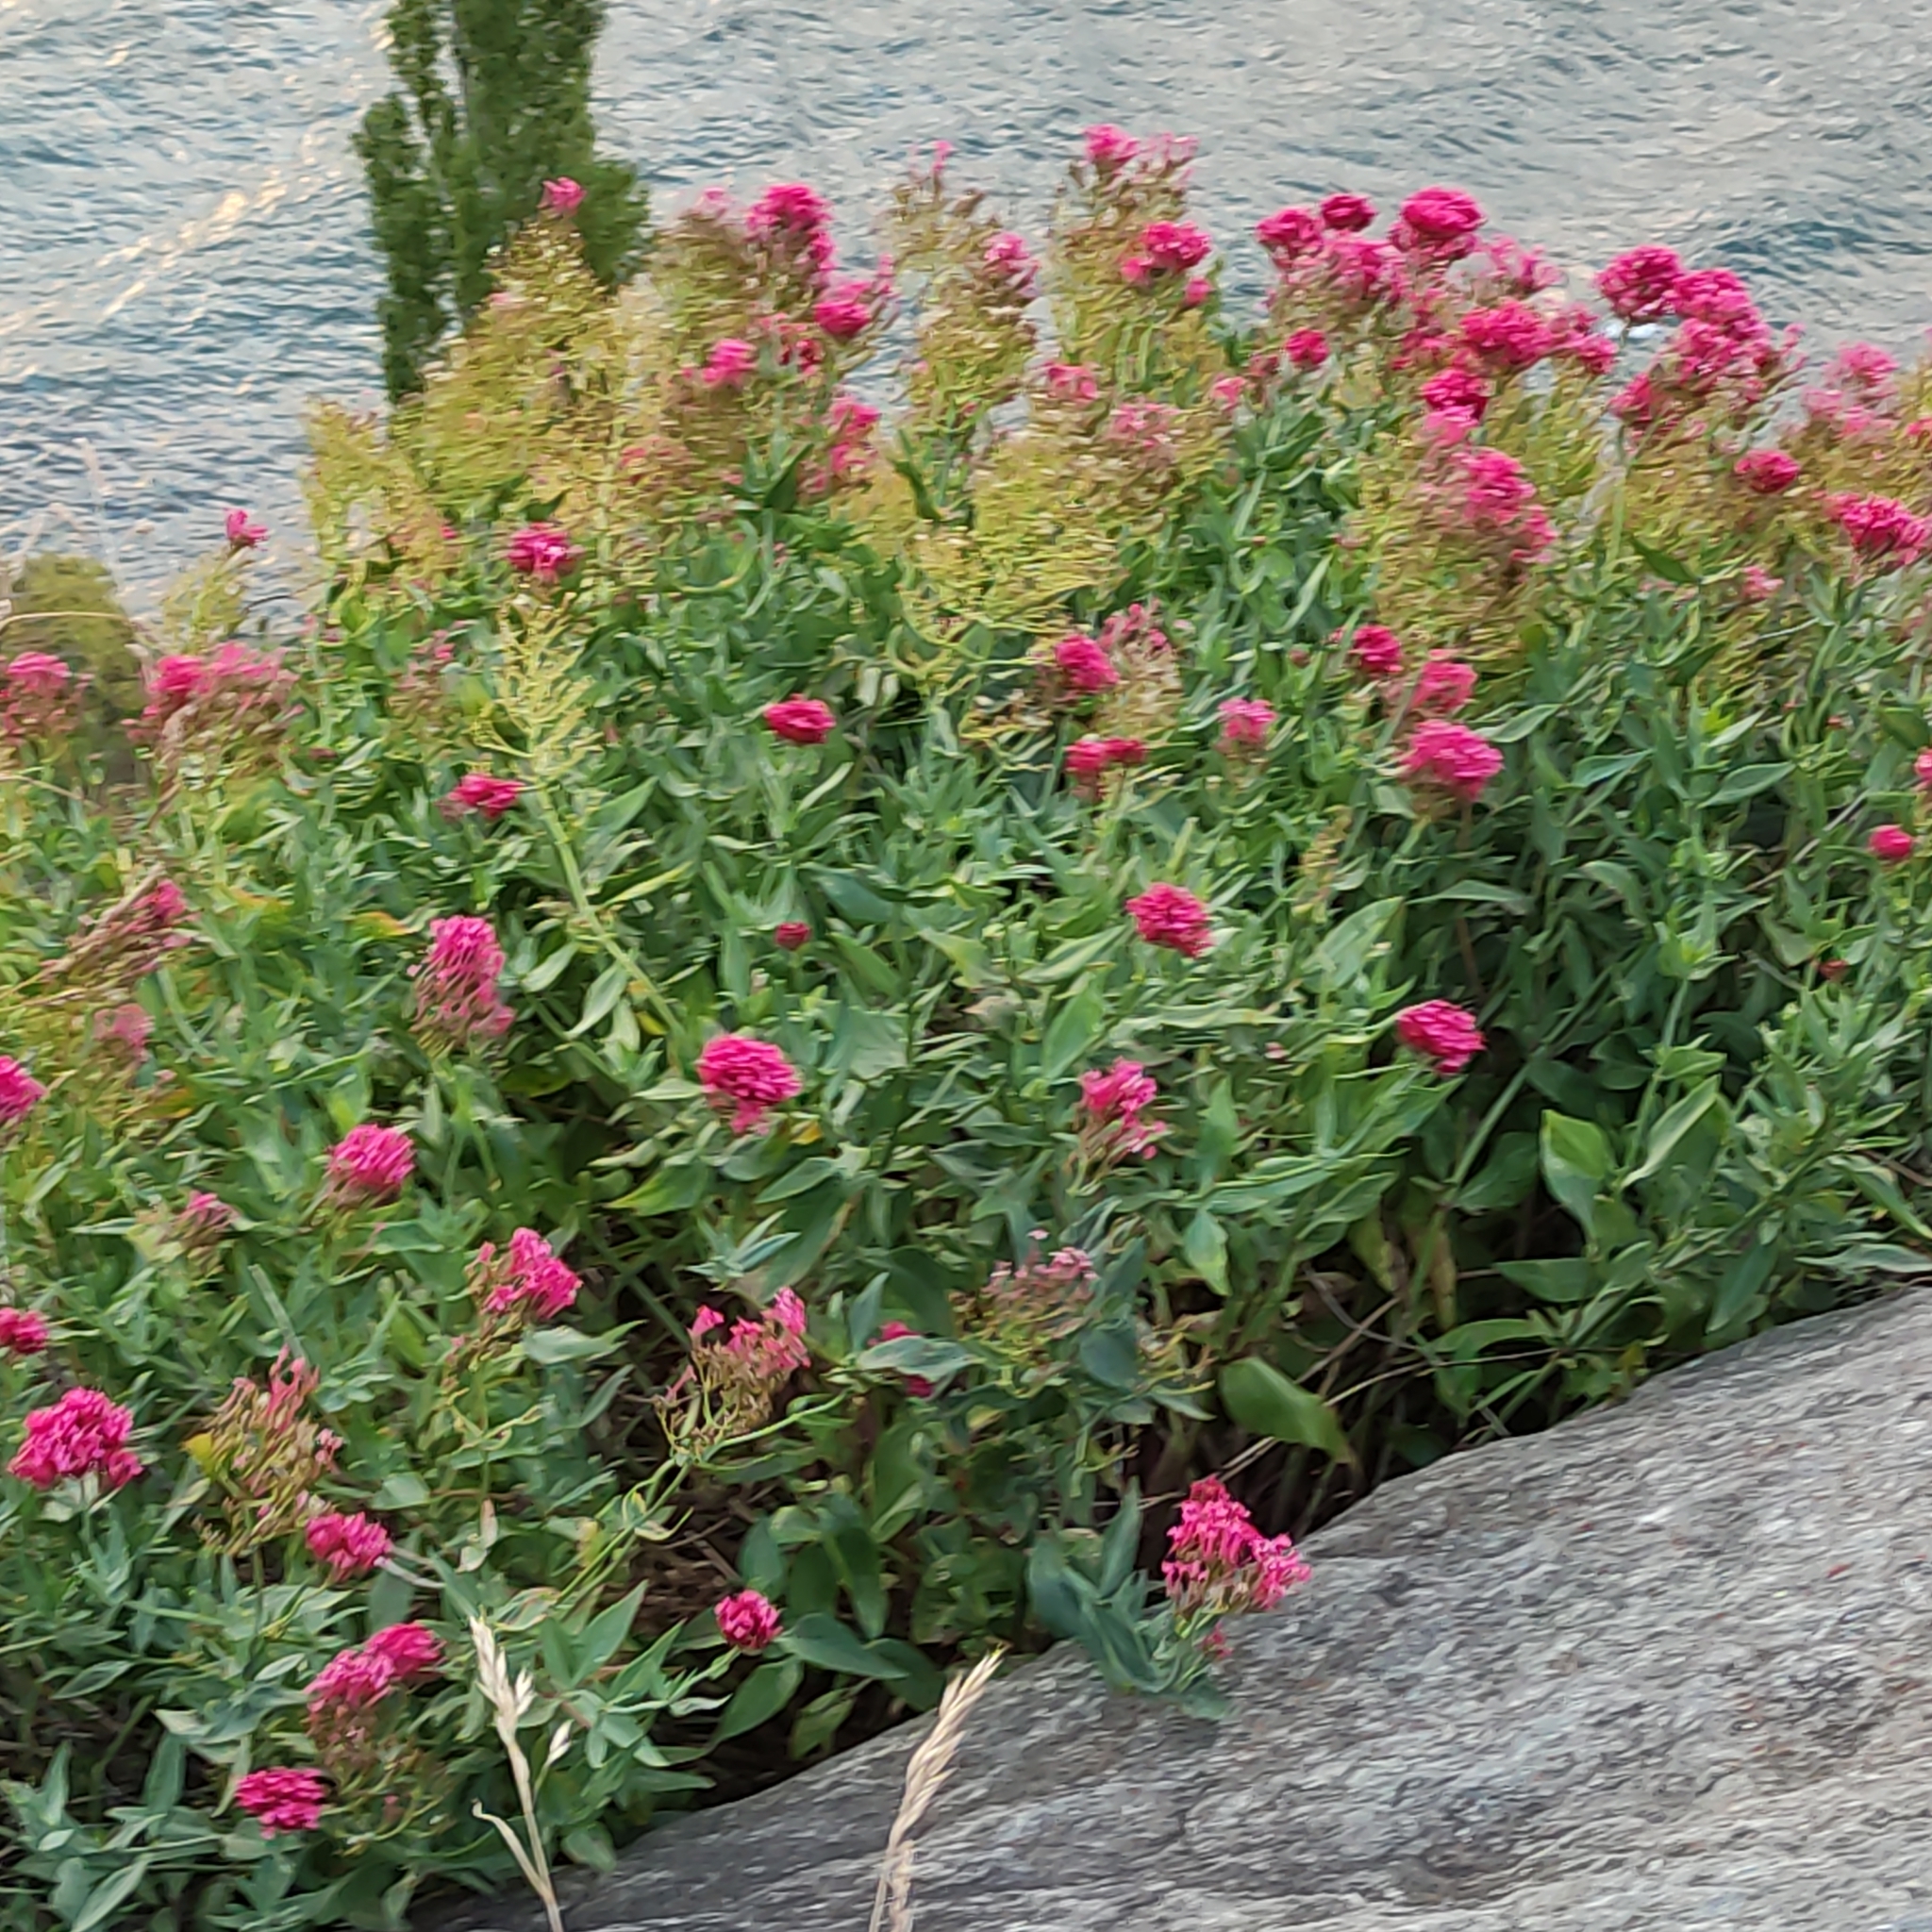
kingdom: Plantae
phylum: Tracheophyta
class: Magnoliopsida
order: Dipsacales
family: Caprifoliaceae
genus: Centranthus
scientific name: Centranthus ruber
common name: Red valerian
